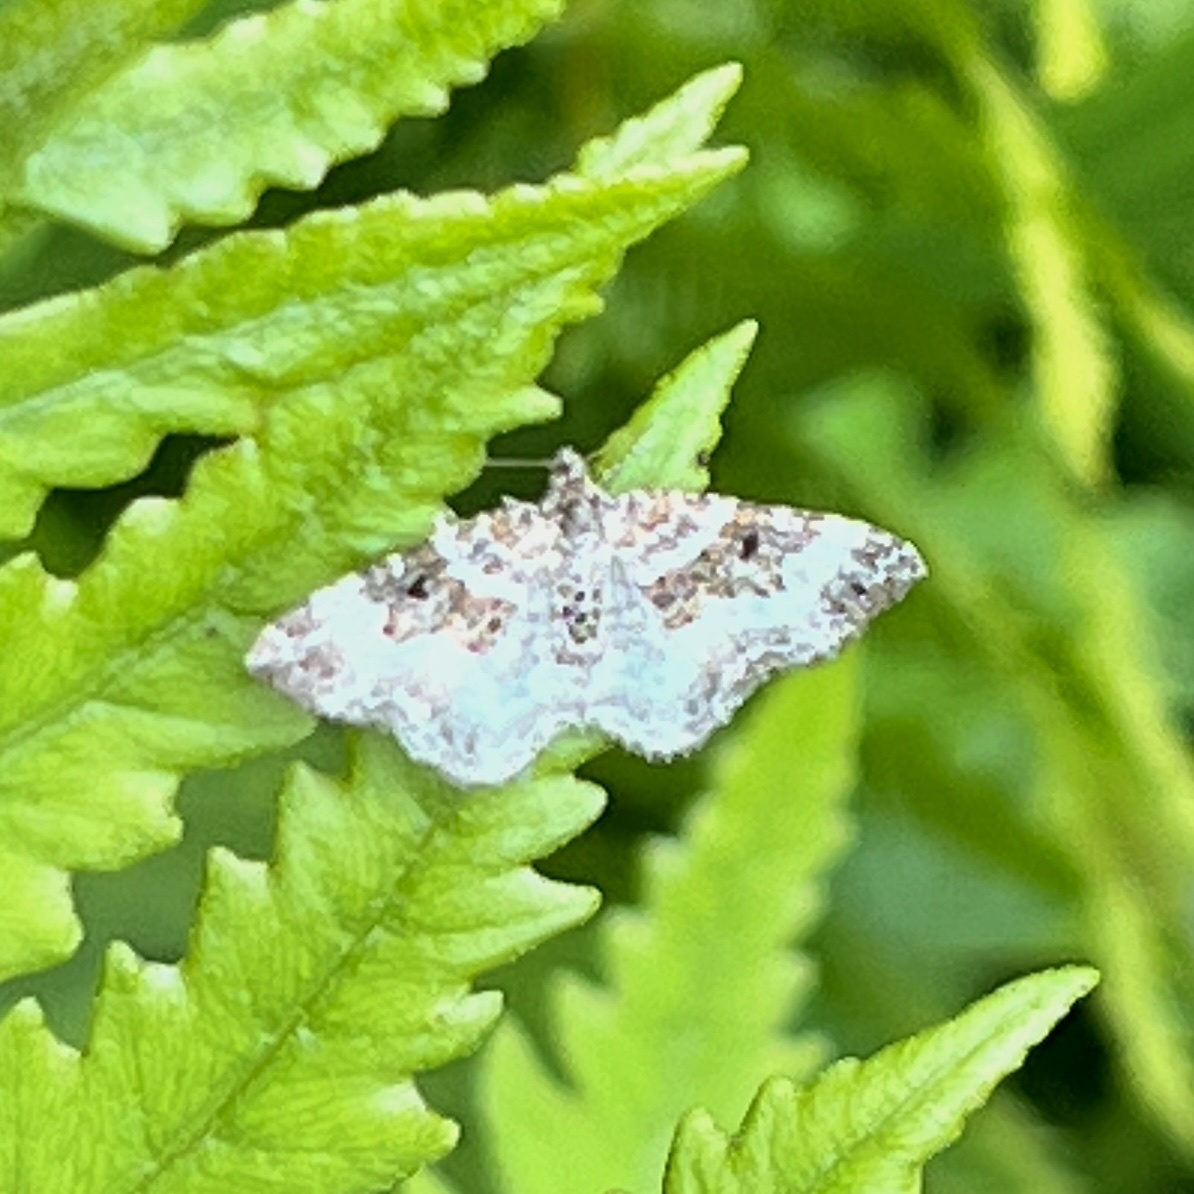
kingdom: Animalia
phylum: Arthropoda
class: Insecta
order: Lepidoptera
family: Geometridae
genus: Epirrhoe
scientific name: Epirrhoe alternata
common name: Common carpet
